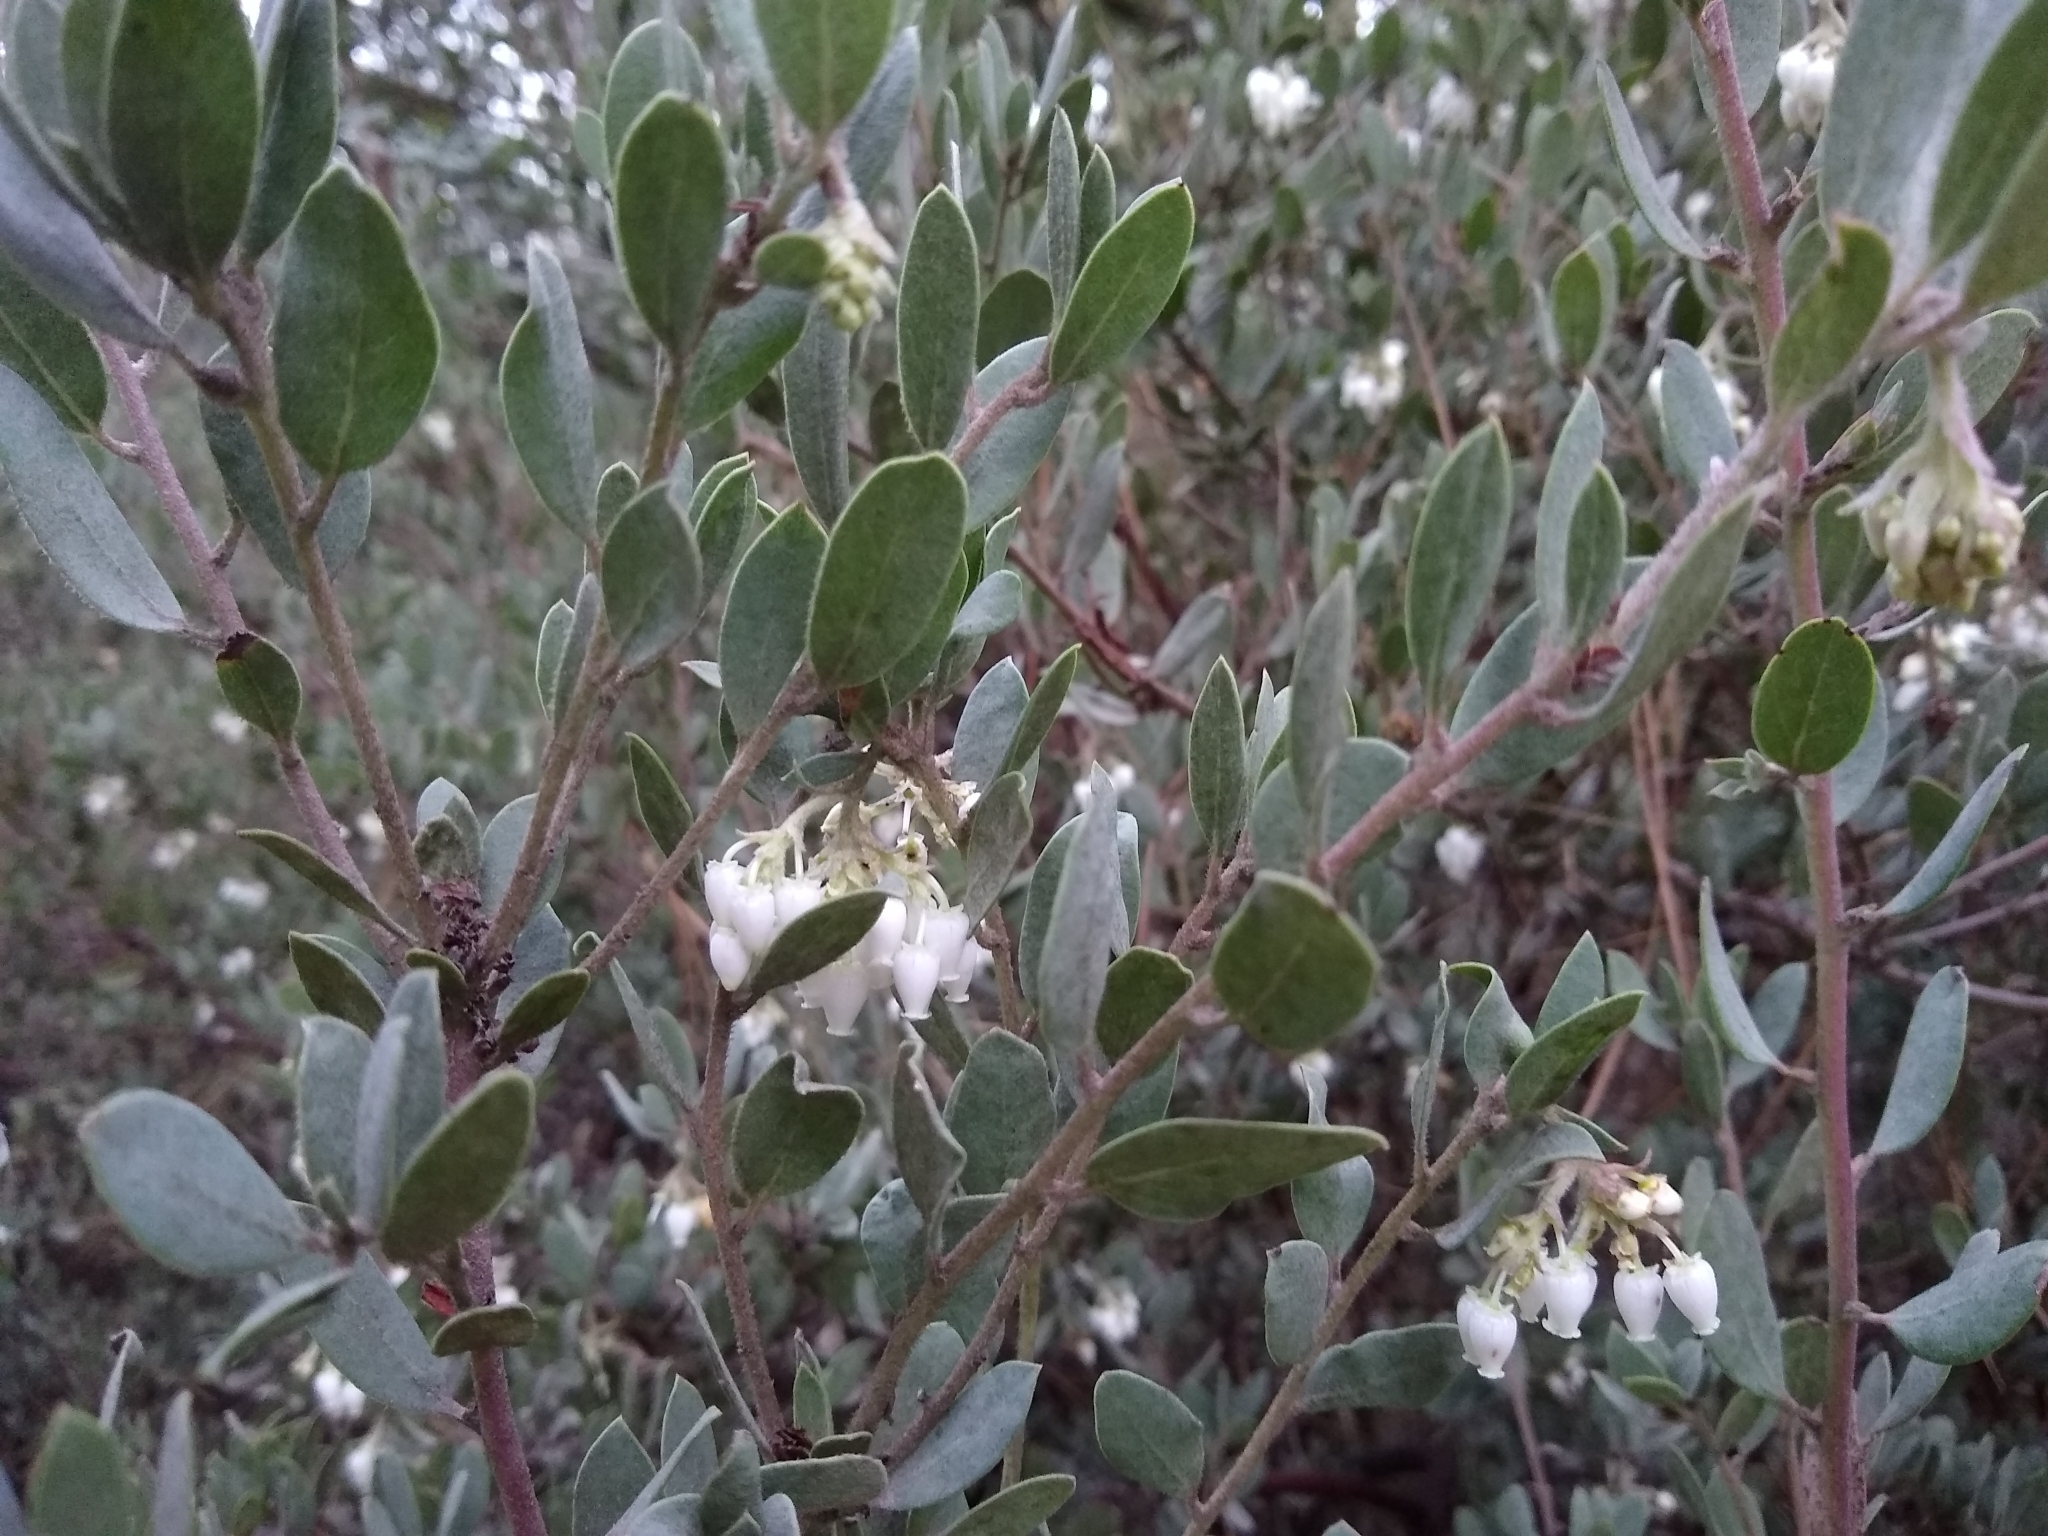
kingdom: Plantae
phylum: Tracheophyta
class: Magnoliopsida
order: Ericales
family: Ericaceae
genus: Arctostaphylos
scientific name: Arctostaphylos silvicola
